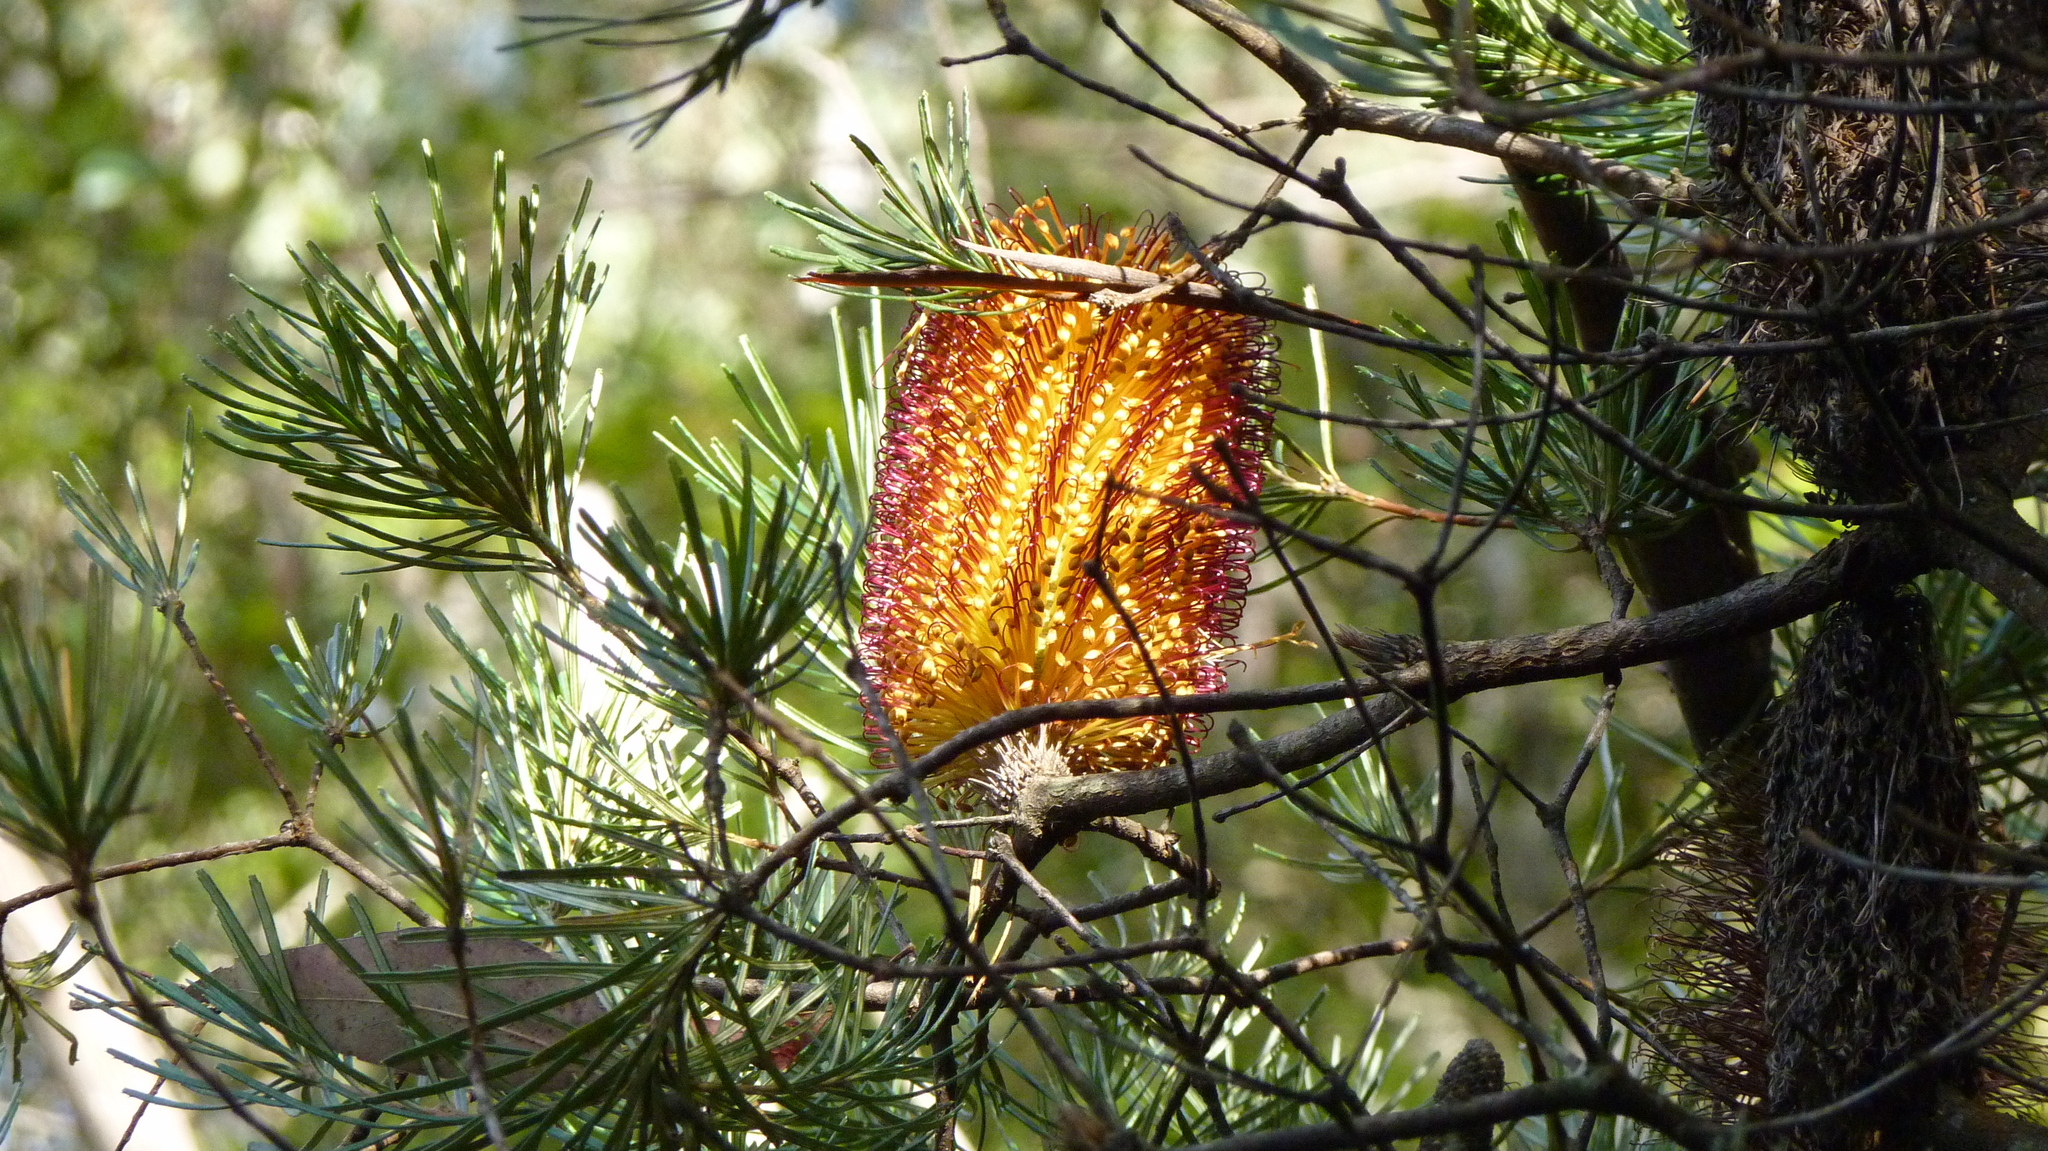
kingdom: Plantae
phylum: Tracheophyta
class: Magnoliopsida
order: Proteales
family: Proteaceae
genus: Banksia
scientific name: Banksia spinulosa
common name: Hairpin banksia
